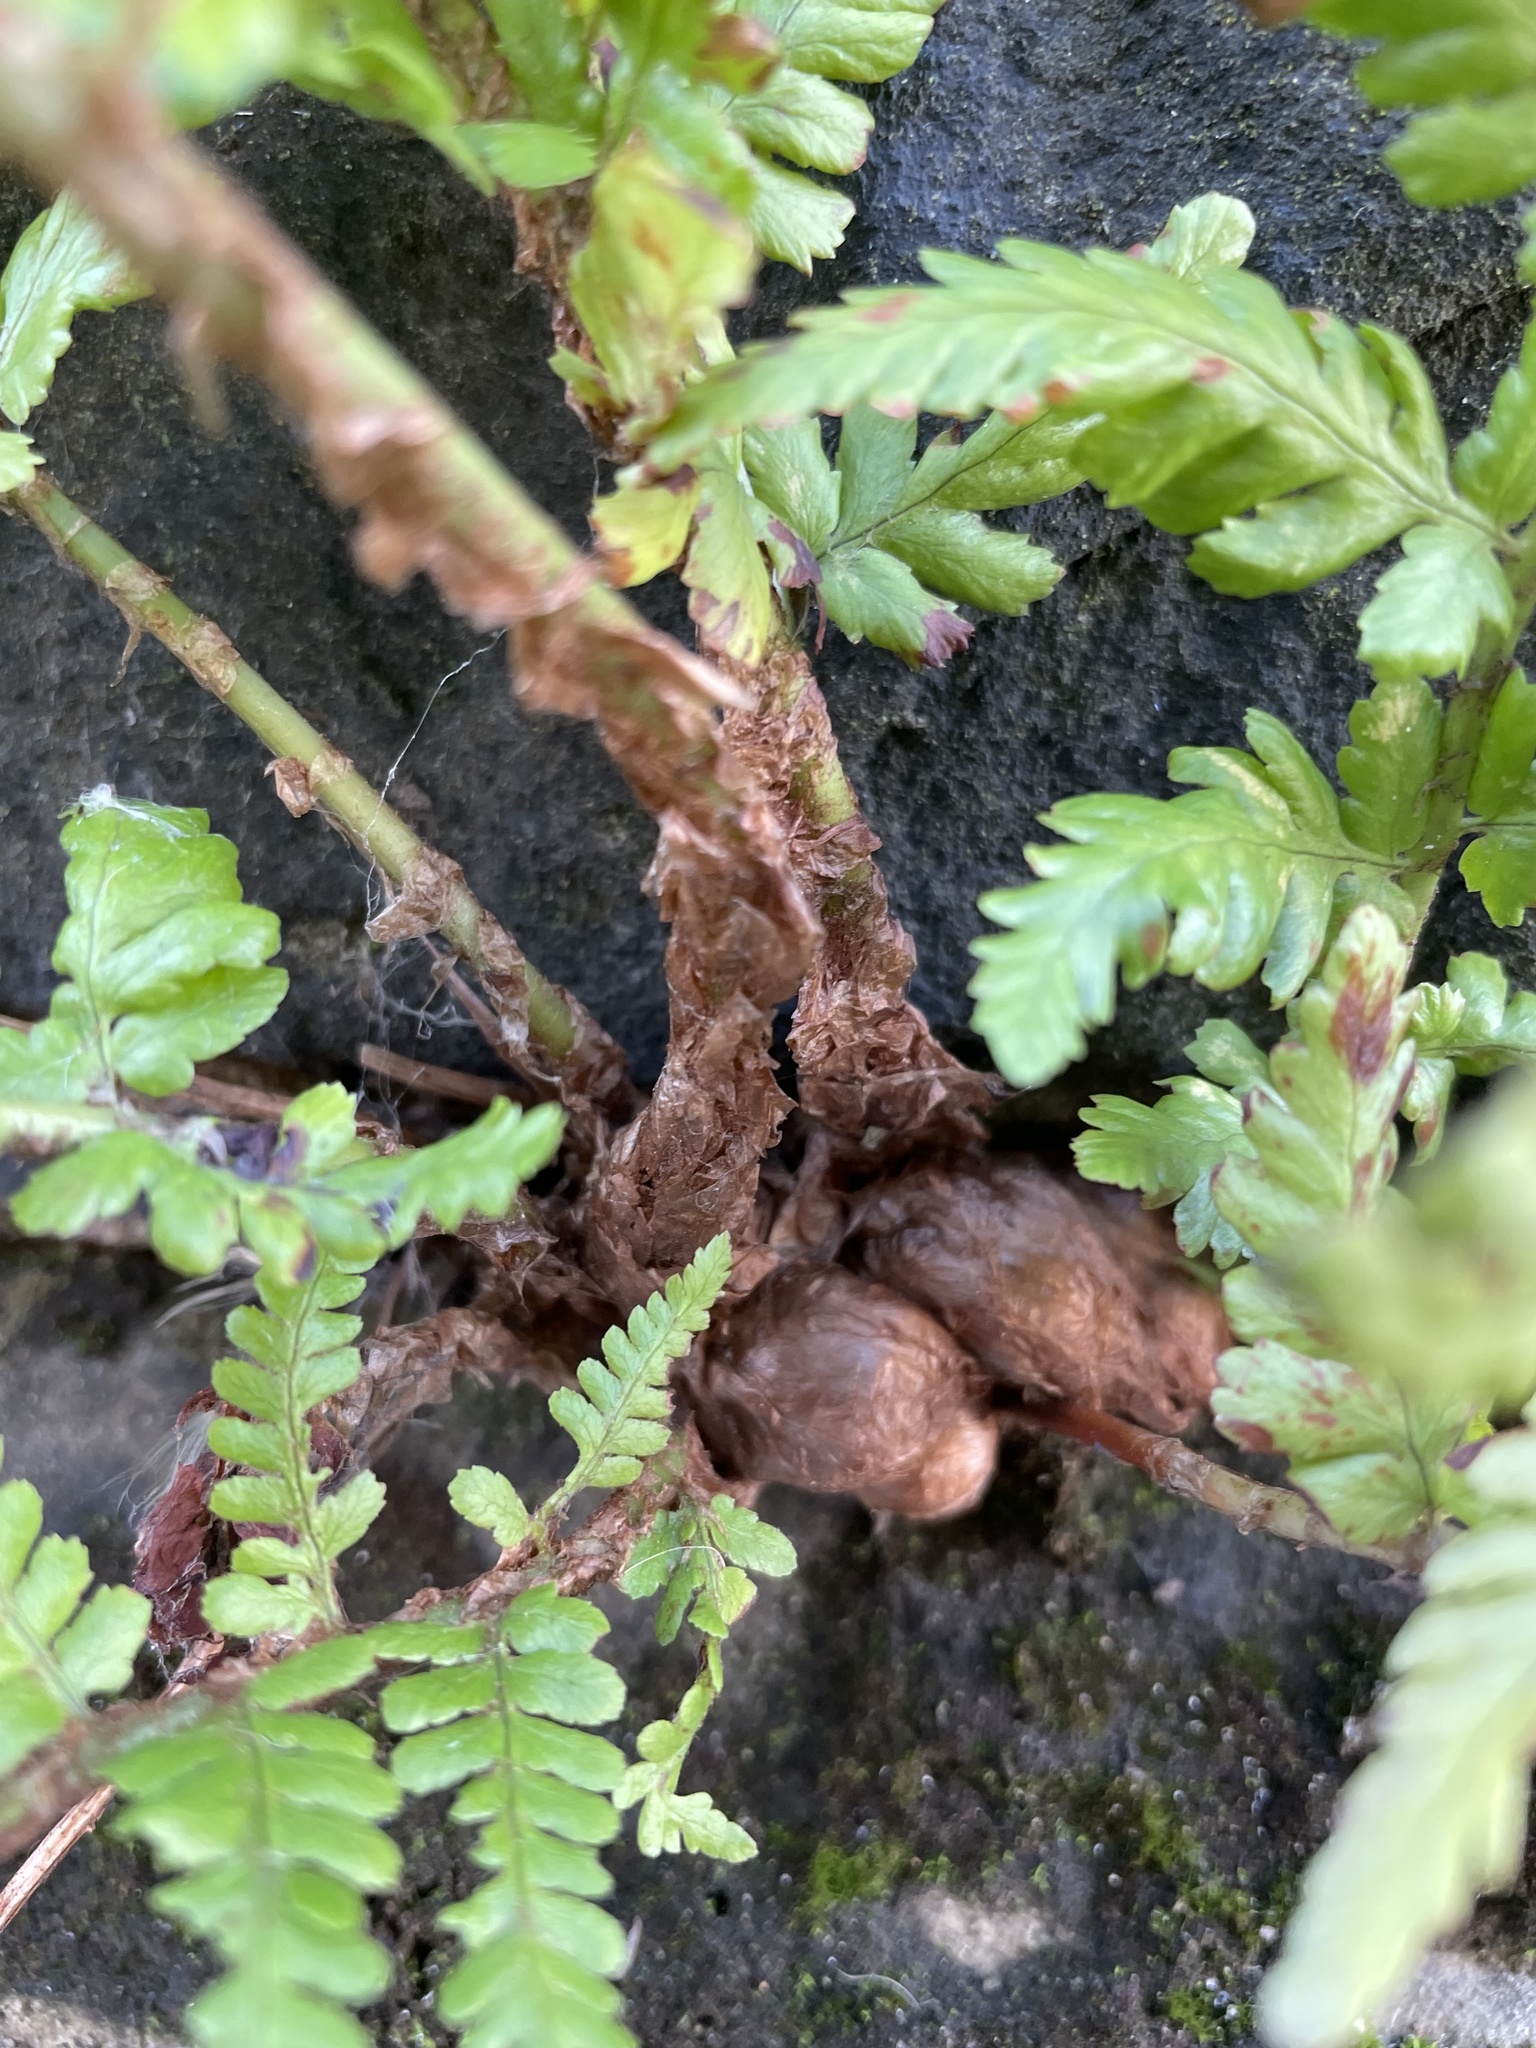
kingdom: Plantae
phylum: Tracheophyta
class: Polypodiopsida
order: Polypodiales
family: Dryopteridaceae
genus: Dryopteris
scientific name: Dryopteris filix-mas
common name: Male fern
